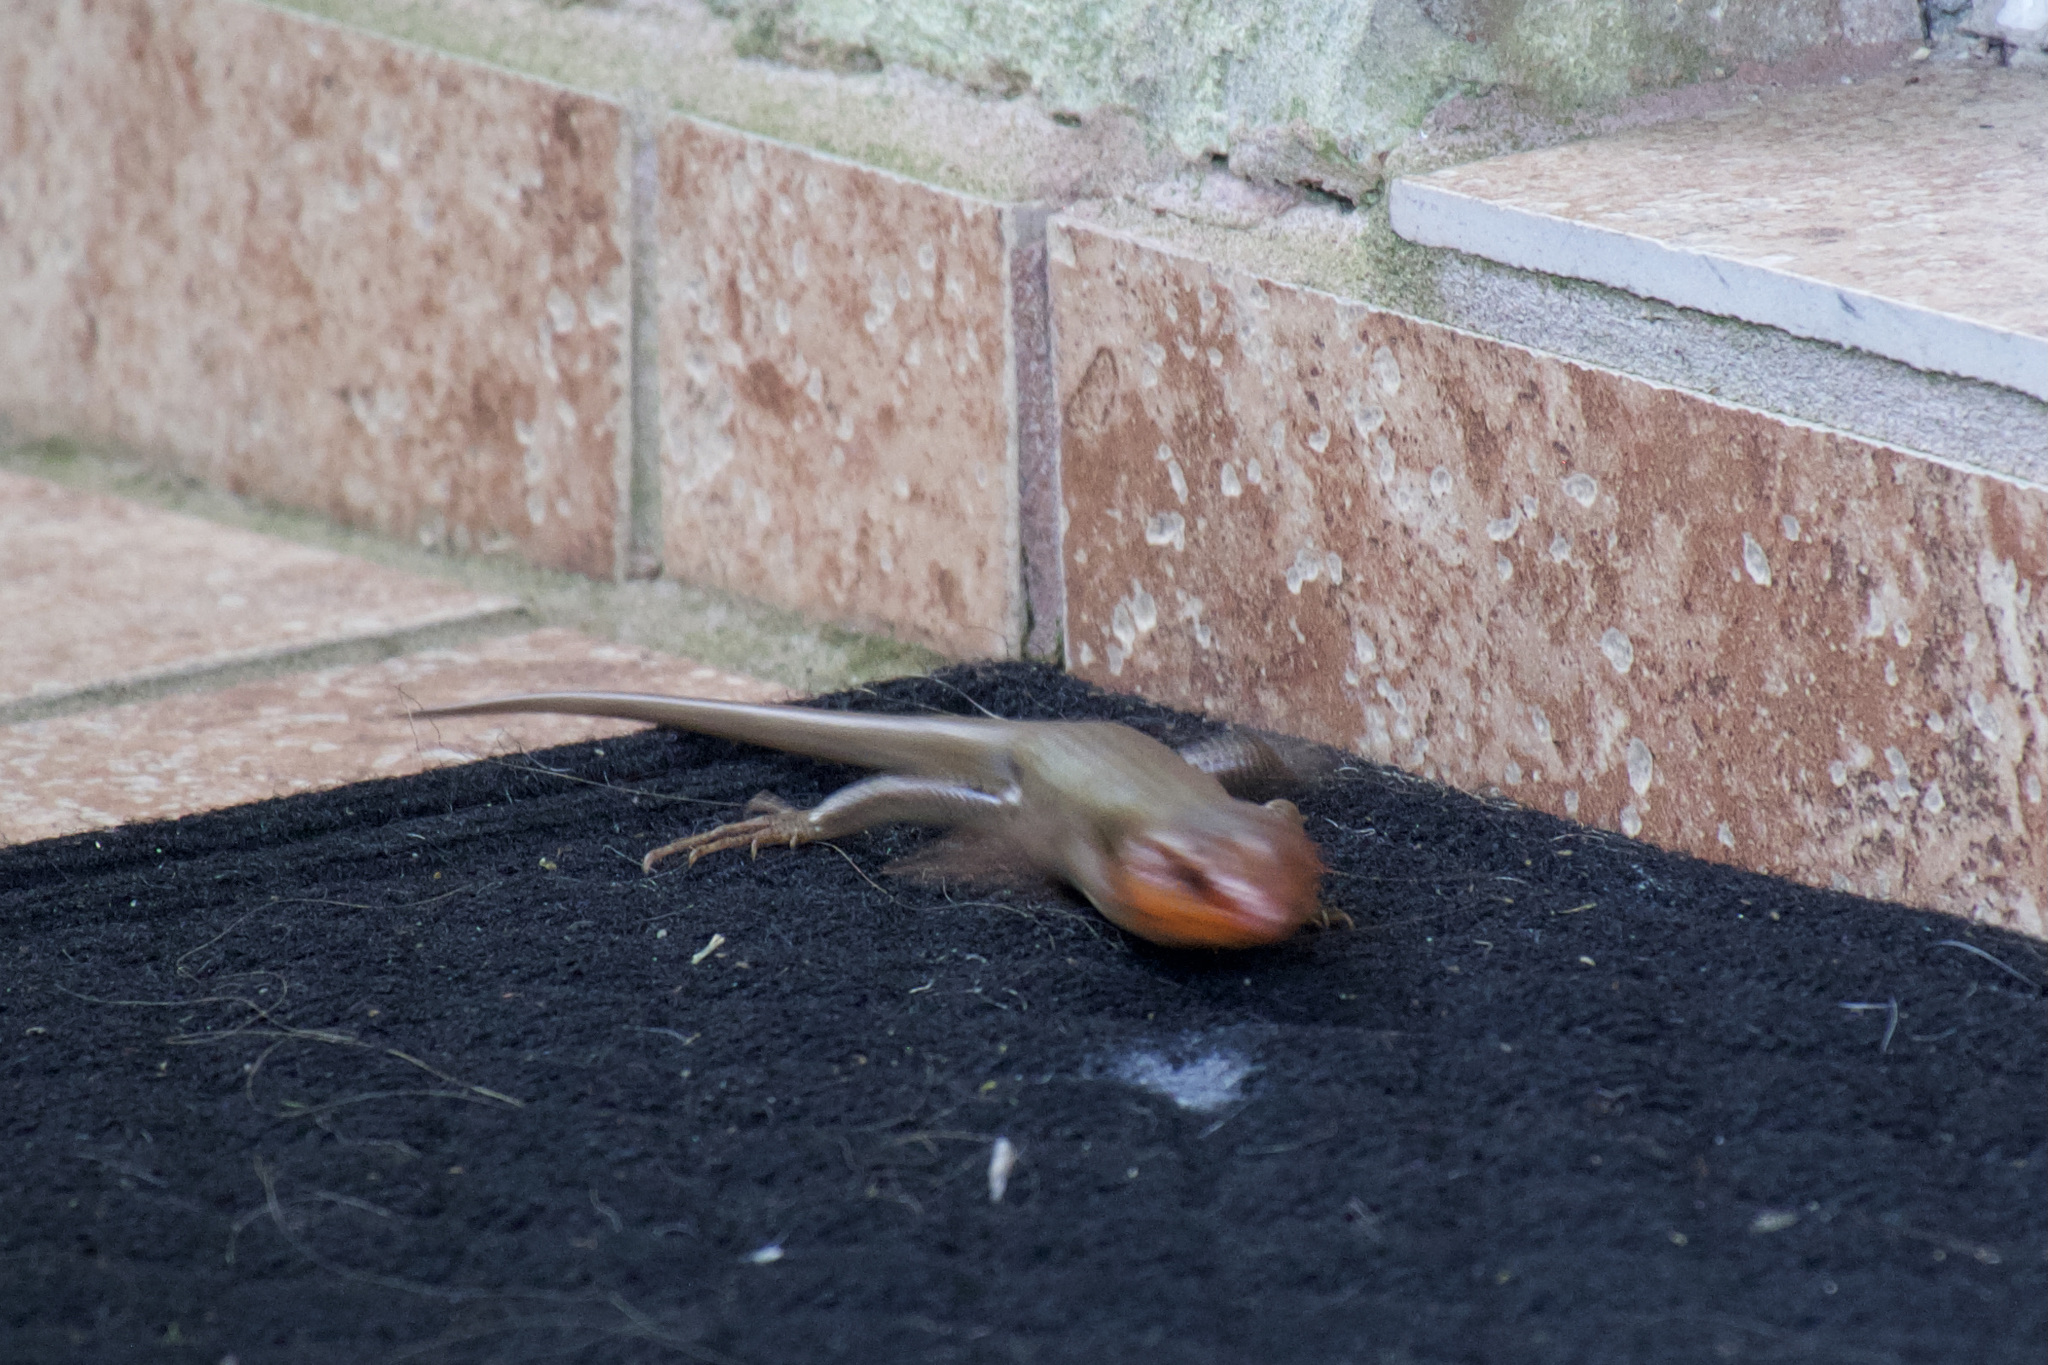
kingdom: Animalia
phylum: Chordata
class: Squamata
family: Scincidae
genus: Plestiodon
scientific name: Plestiodon fasciatus
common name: Five-lined skink
